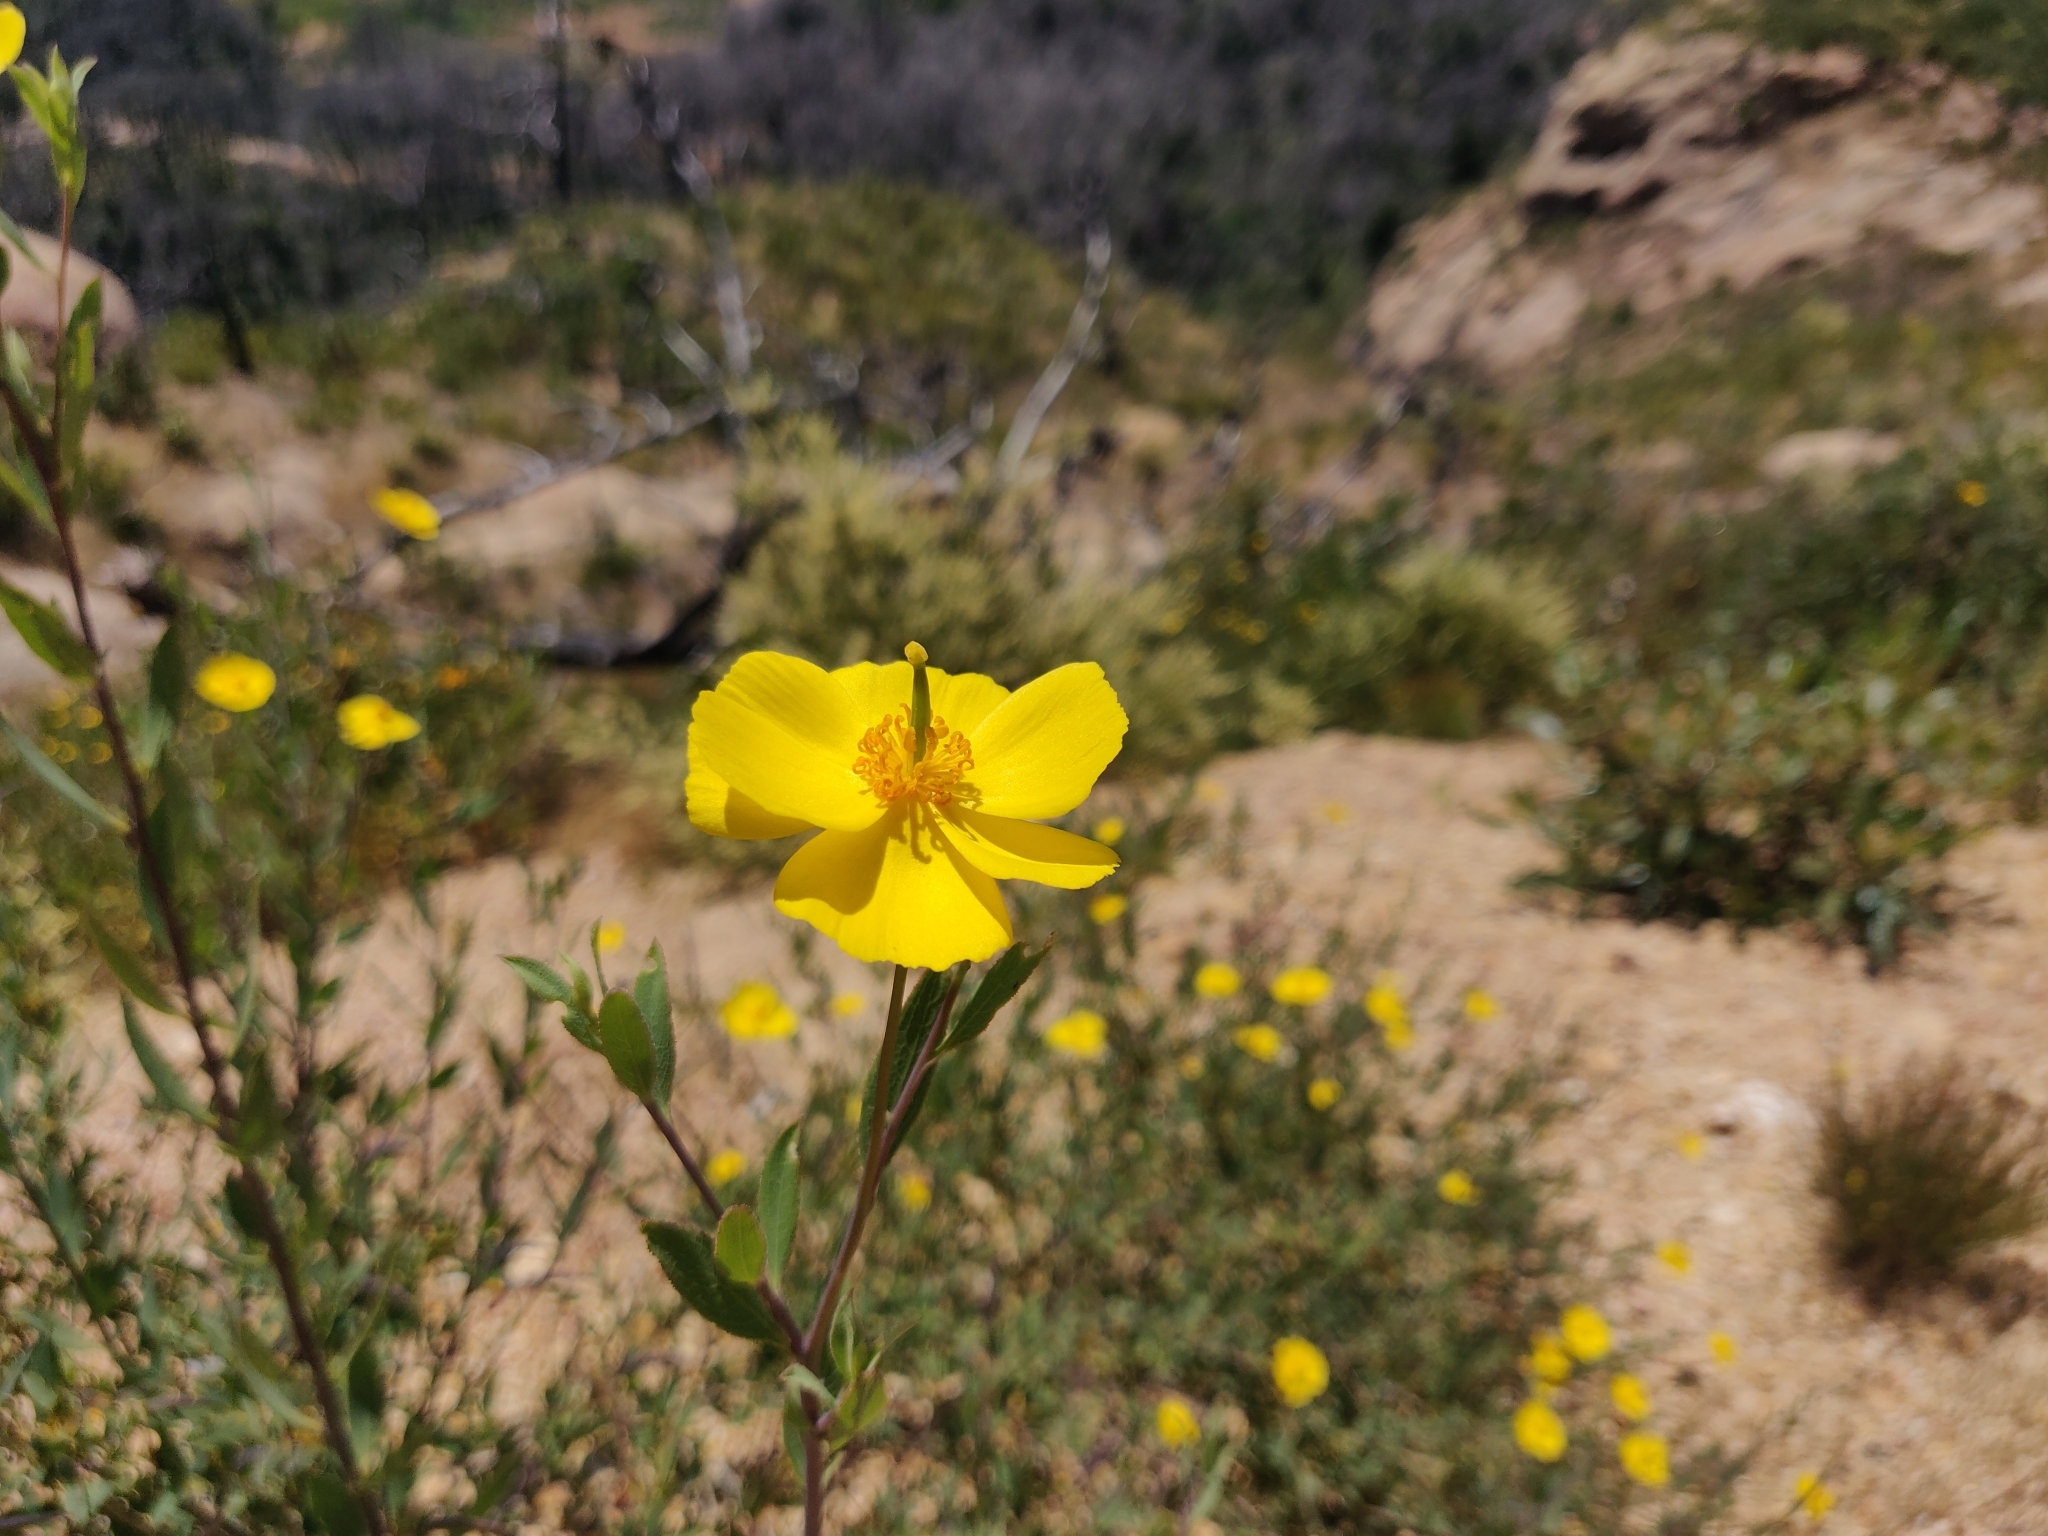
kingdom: Plantae
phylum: Tracheophyta
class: Magnoliopsida
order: Ranunculales
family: Papaveraceae
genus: Dendromecon
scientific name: Dendromecon rigida
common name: Tree poppy
